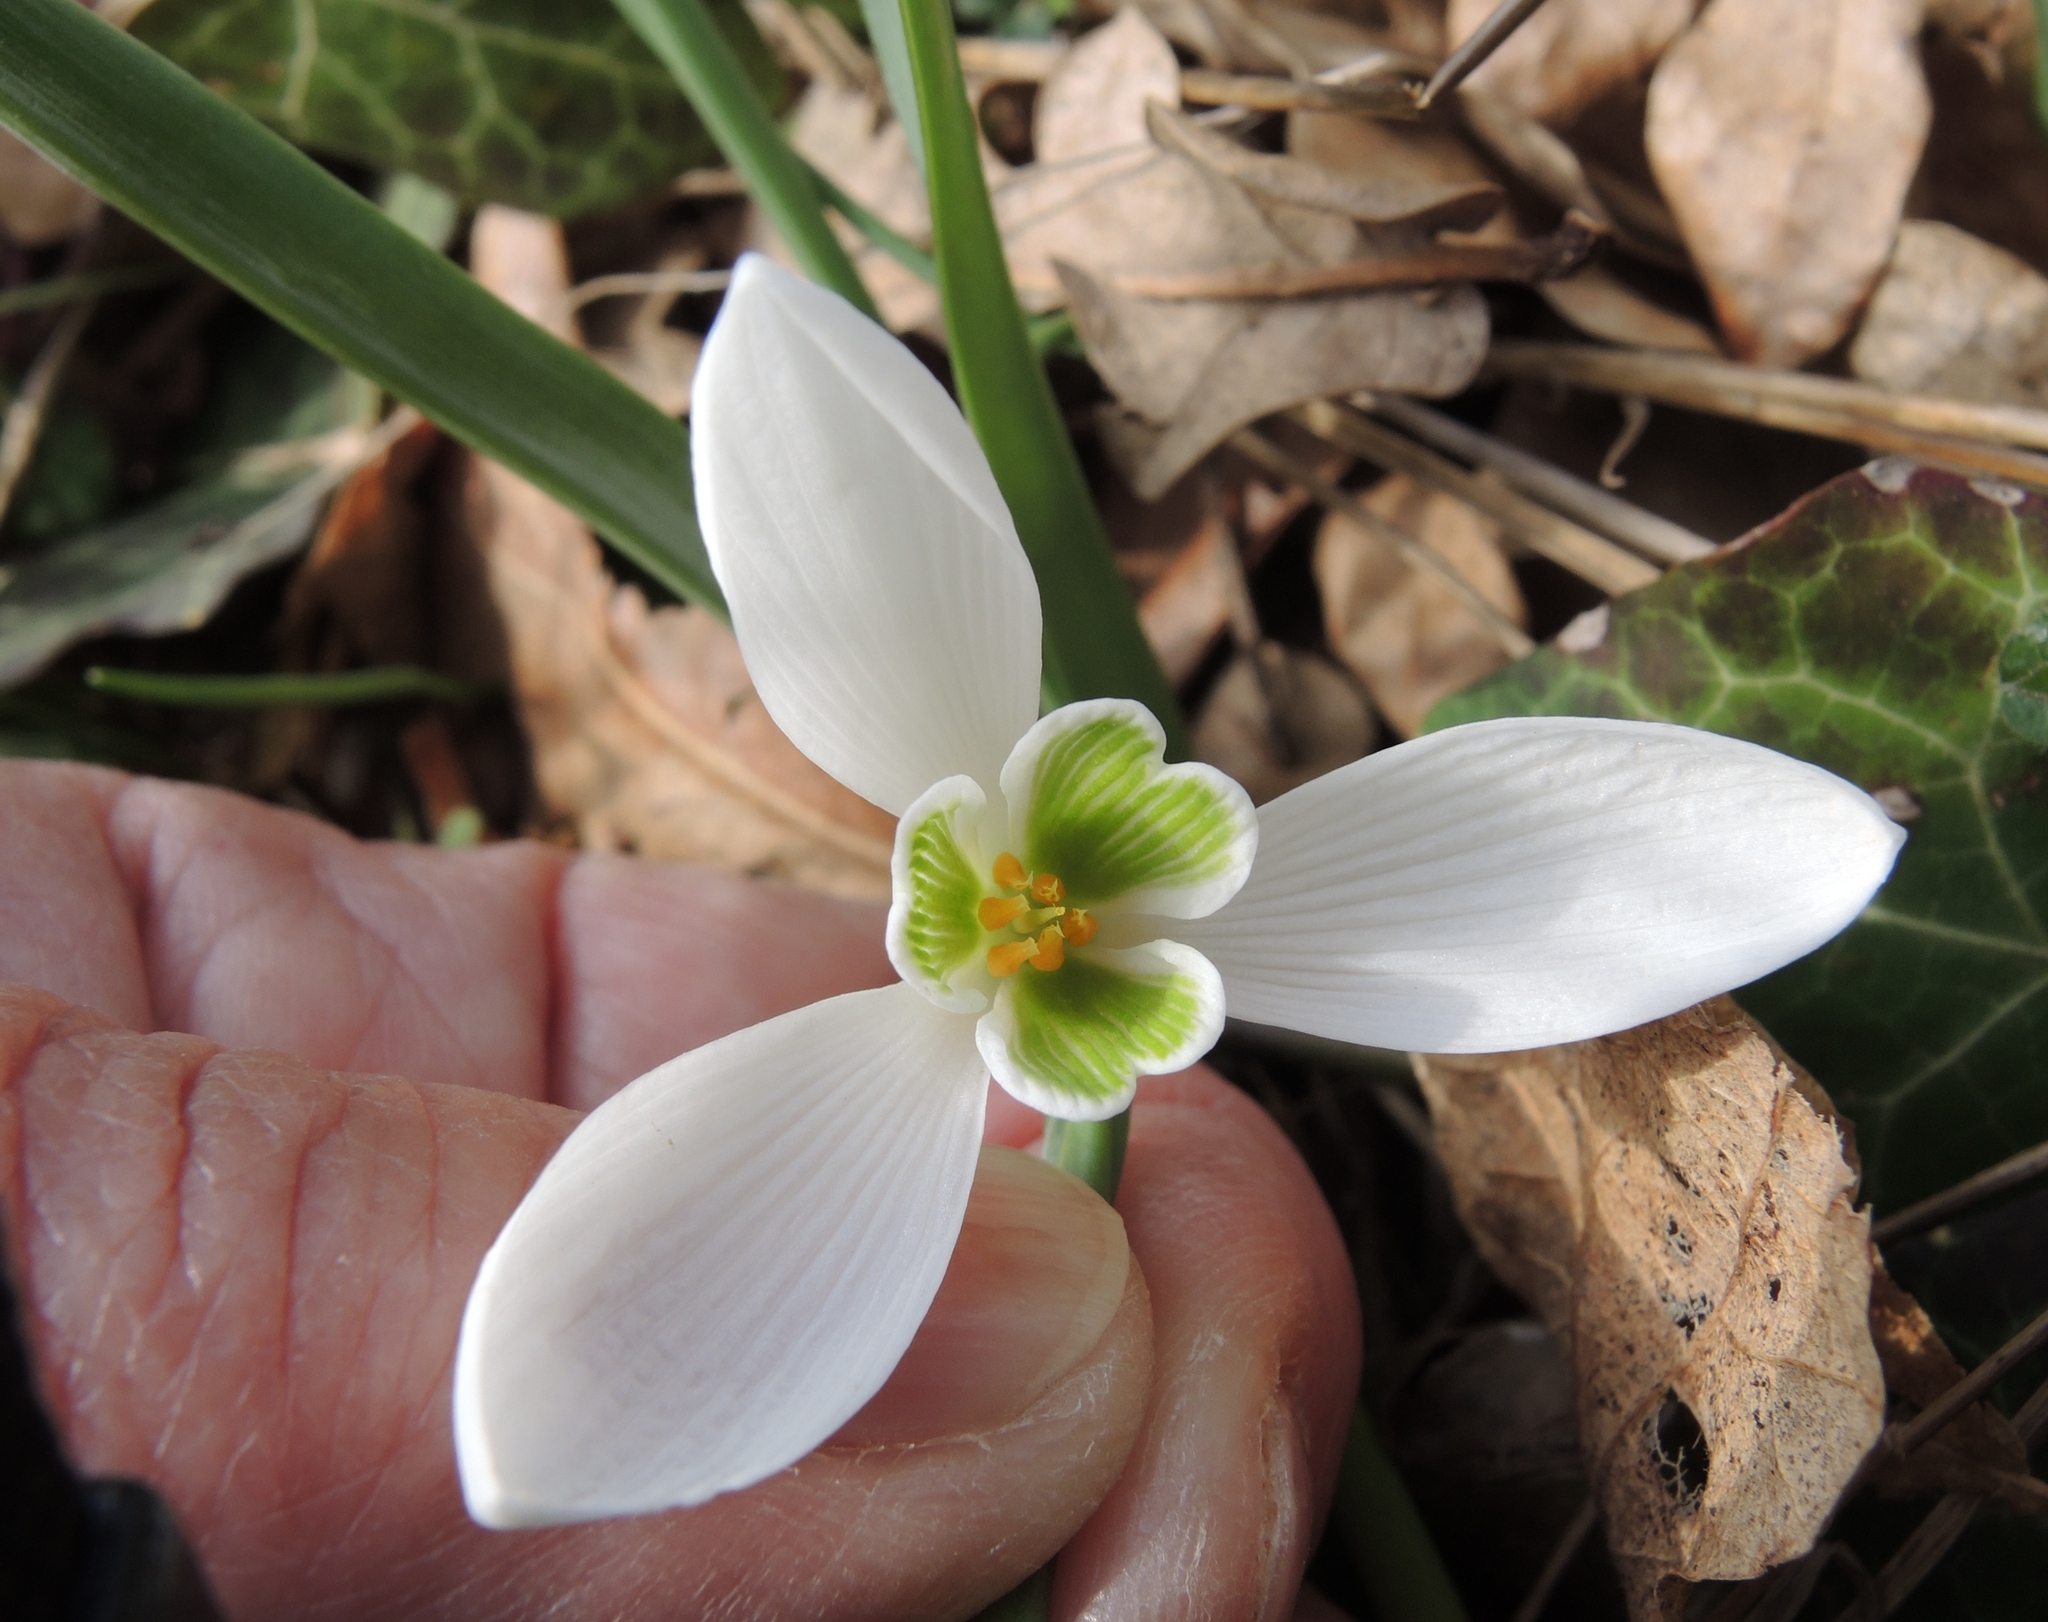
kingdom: Plantae
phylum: Tracheophyta
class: Liliopsida
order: Asparagales
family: Amaryllidaceae
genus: Galanthus
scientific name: Galanthus nivalis
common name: Snowdrop
